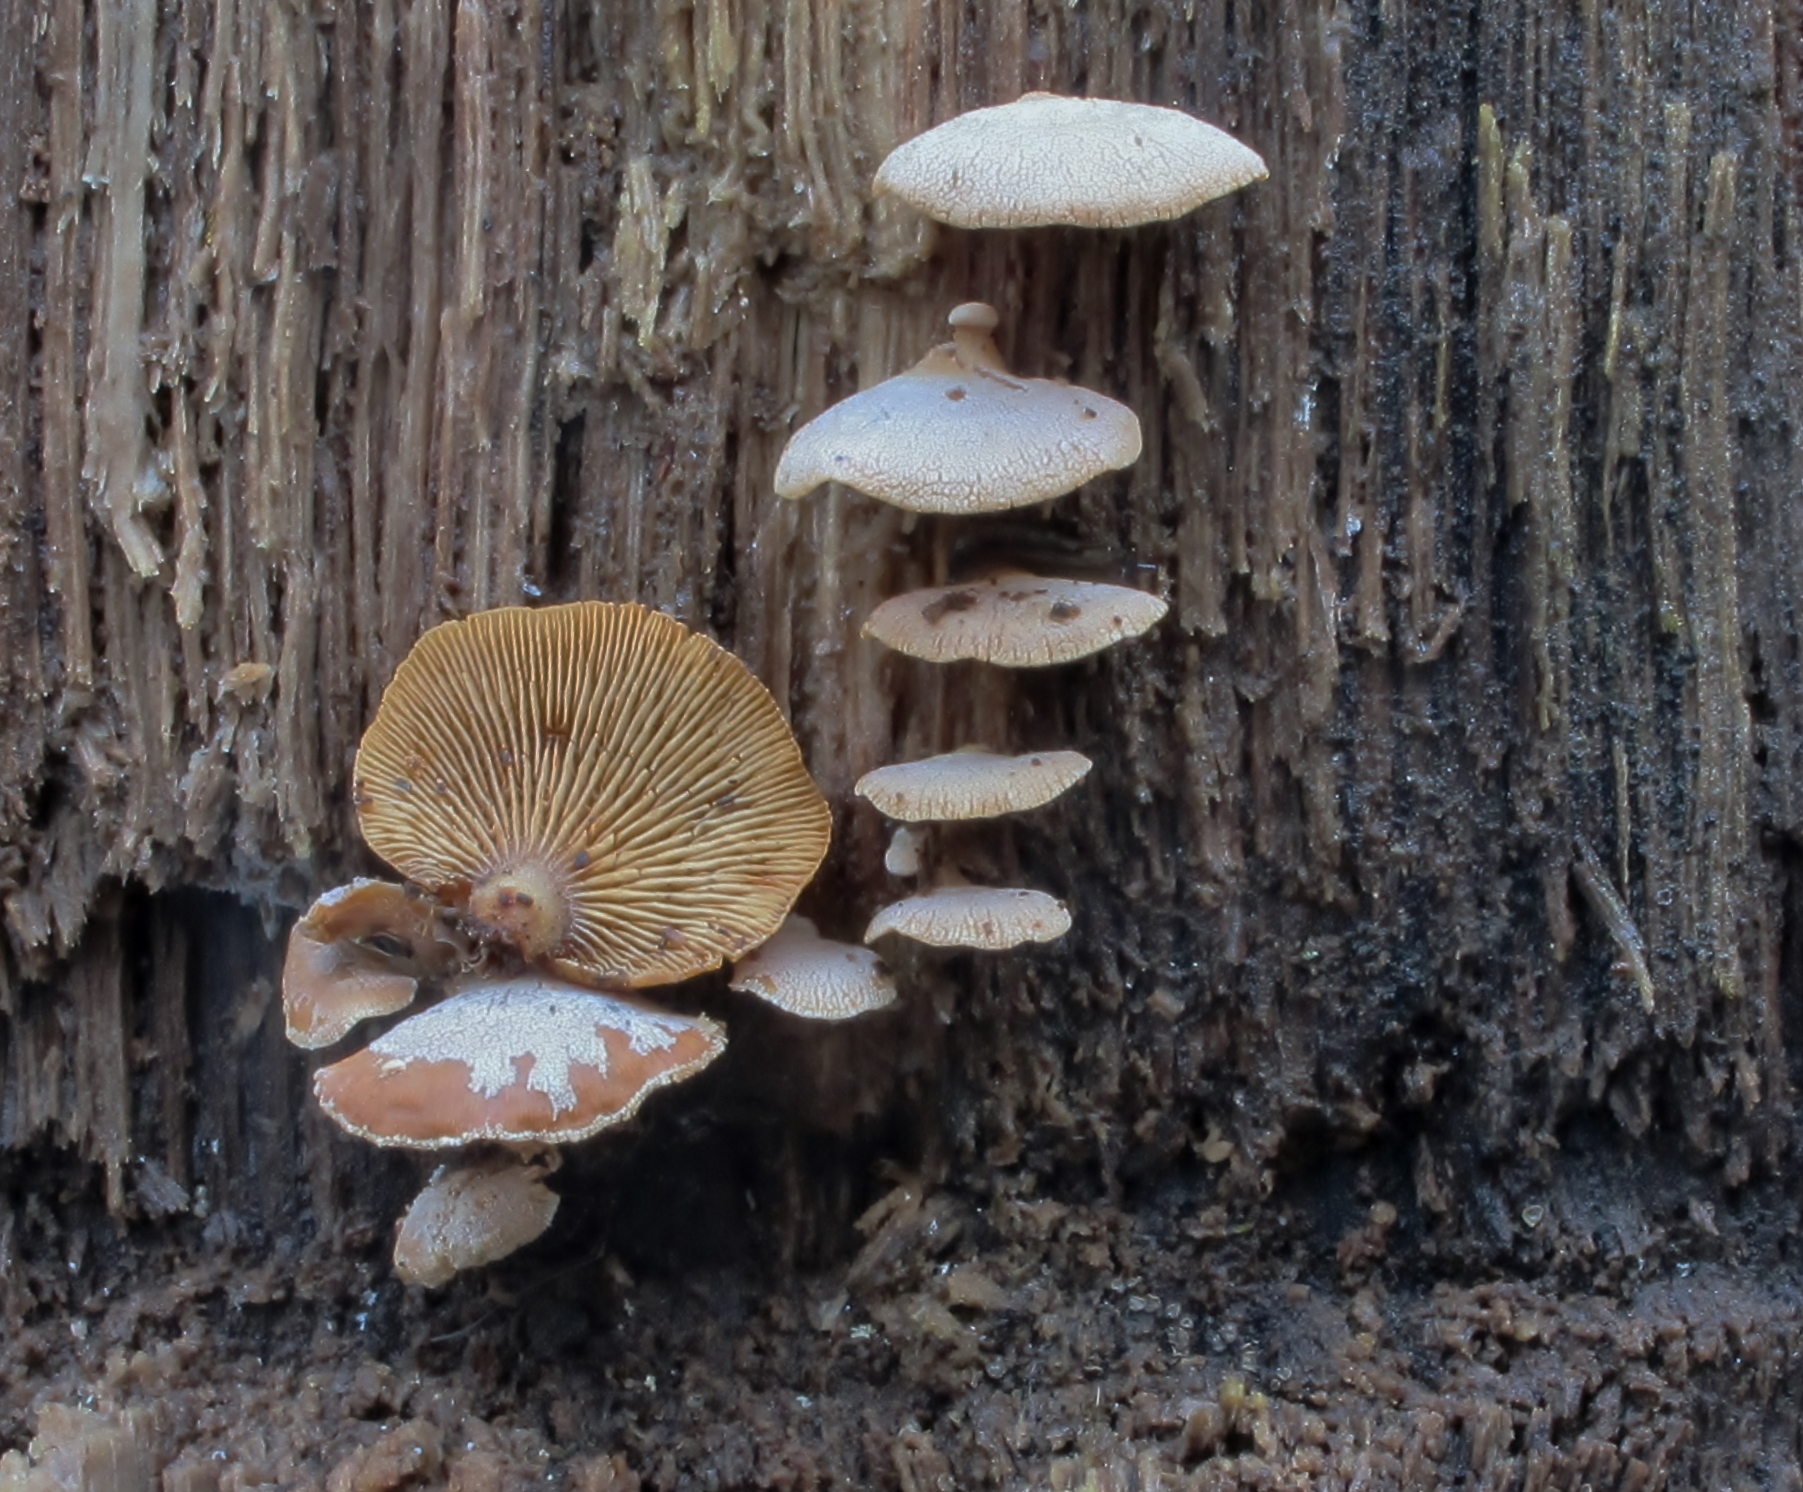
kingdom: Fungi
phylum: Basidiomycota
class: Agaricomycetes
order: Agaricales
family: Mycenaceae
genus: Panellus
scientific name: Panellus stipticus
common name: Bitter oysterling
